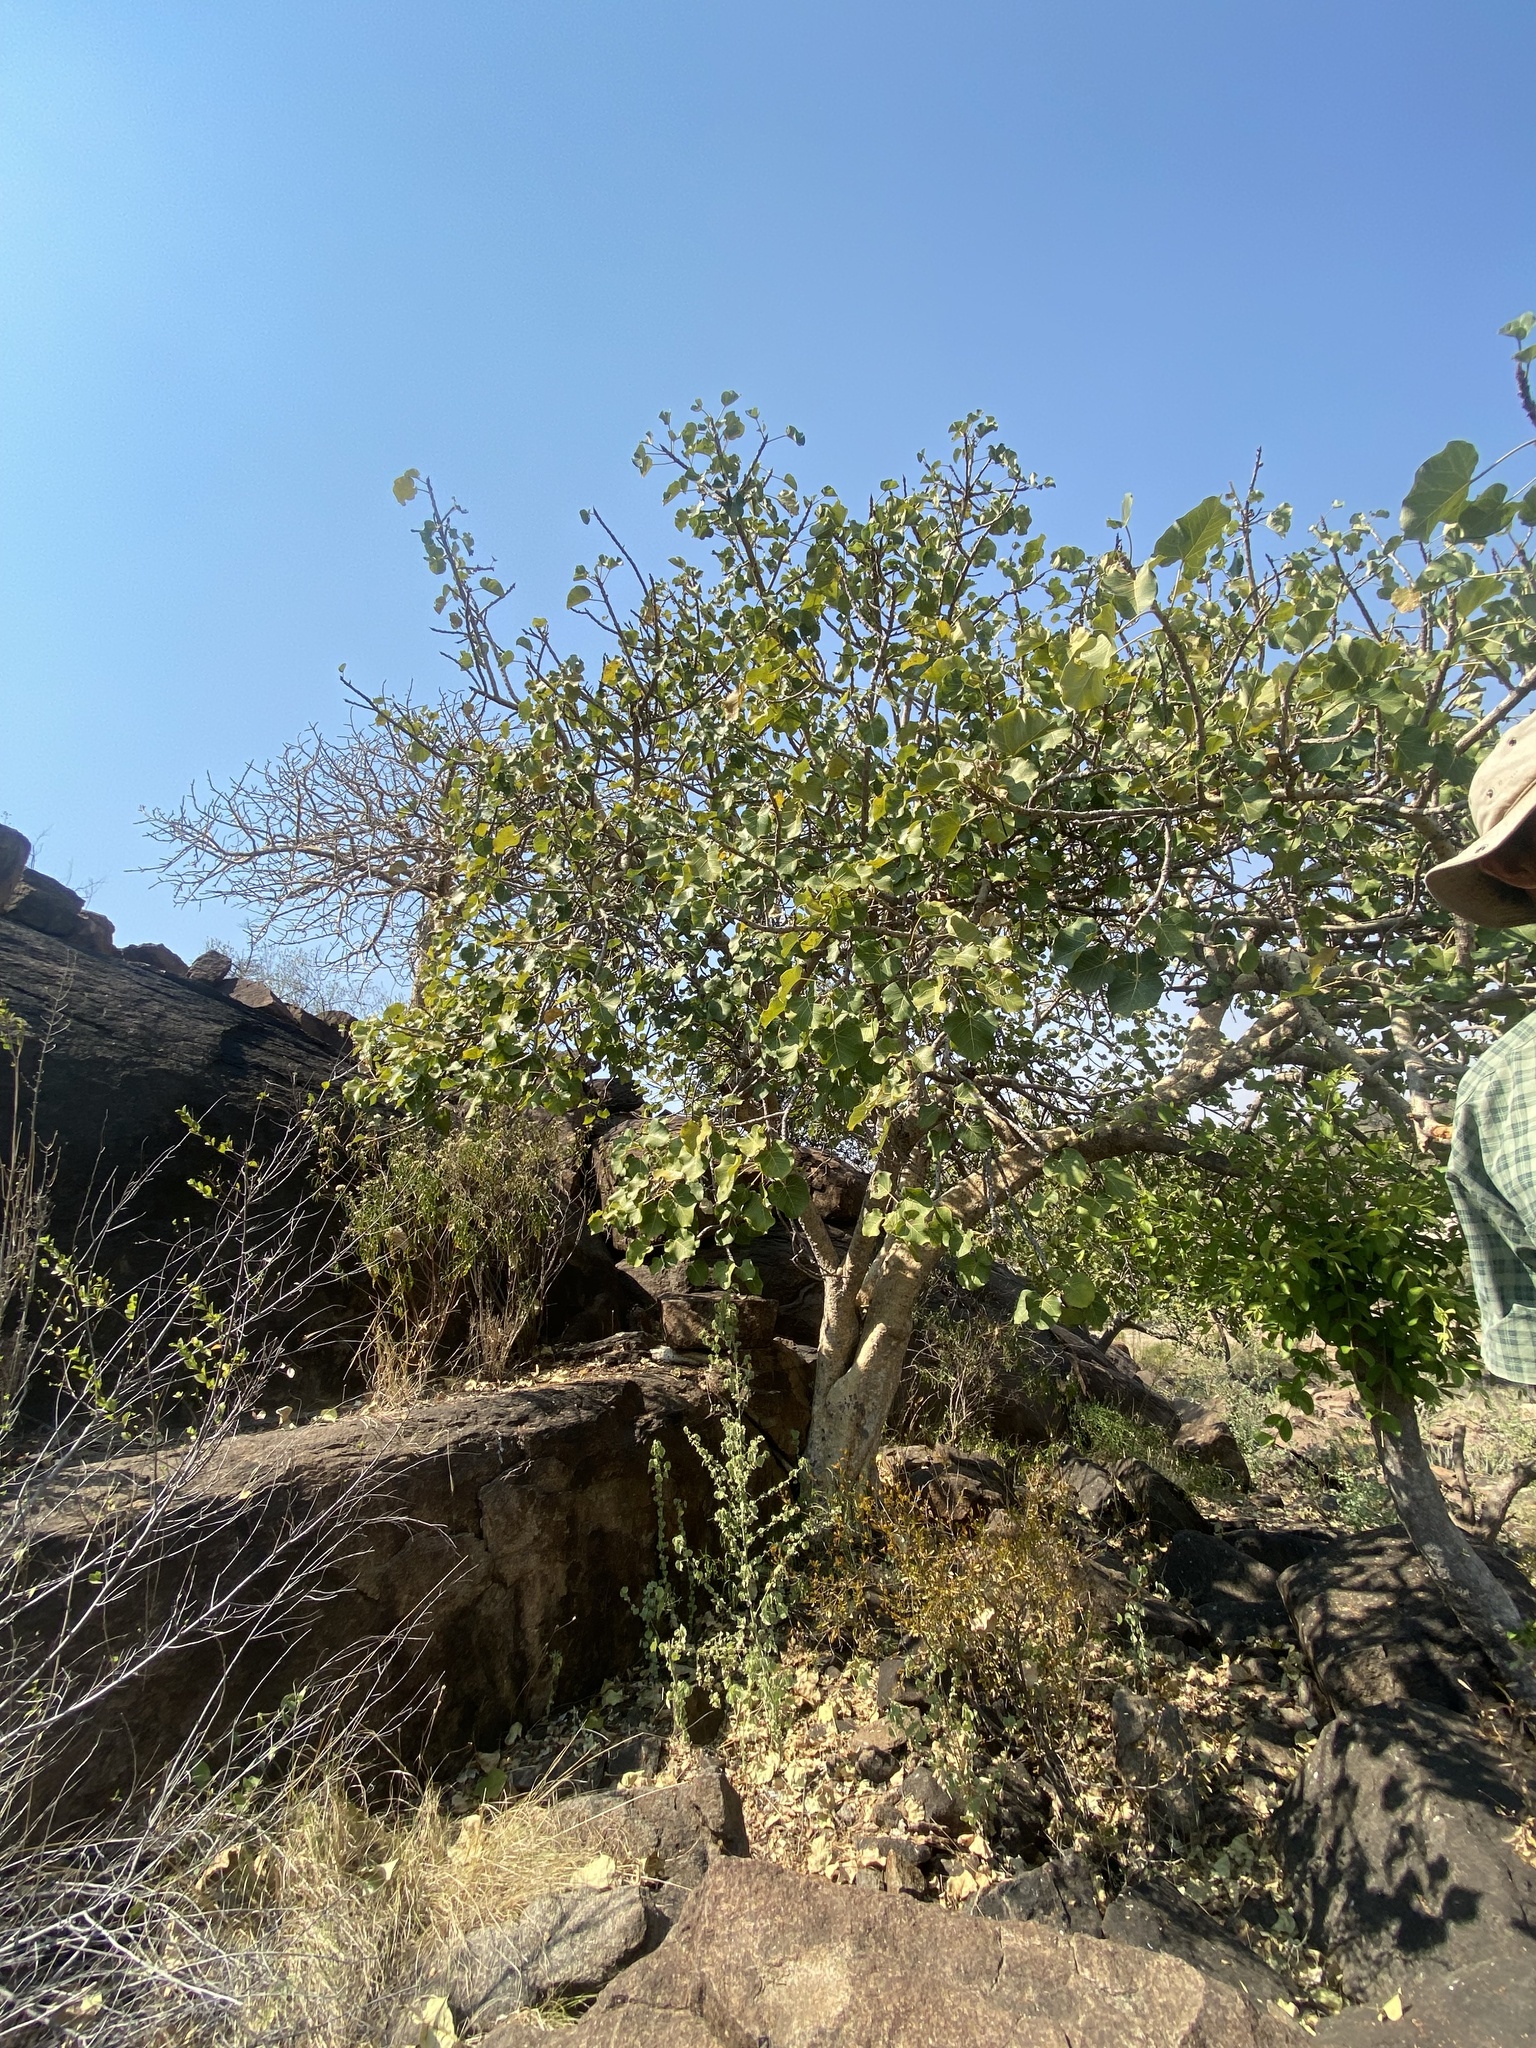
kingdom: Plantae
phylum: Tracheophyta
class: Magnoliopsida
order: Rosales
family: Moraceae
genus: Ficus
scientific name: Ficus abutilifolia
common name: Large-leaved rock fig
